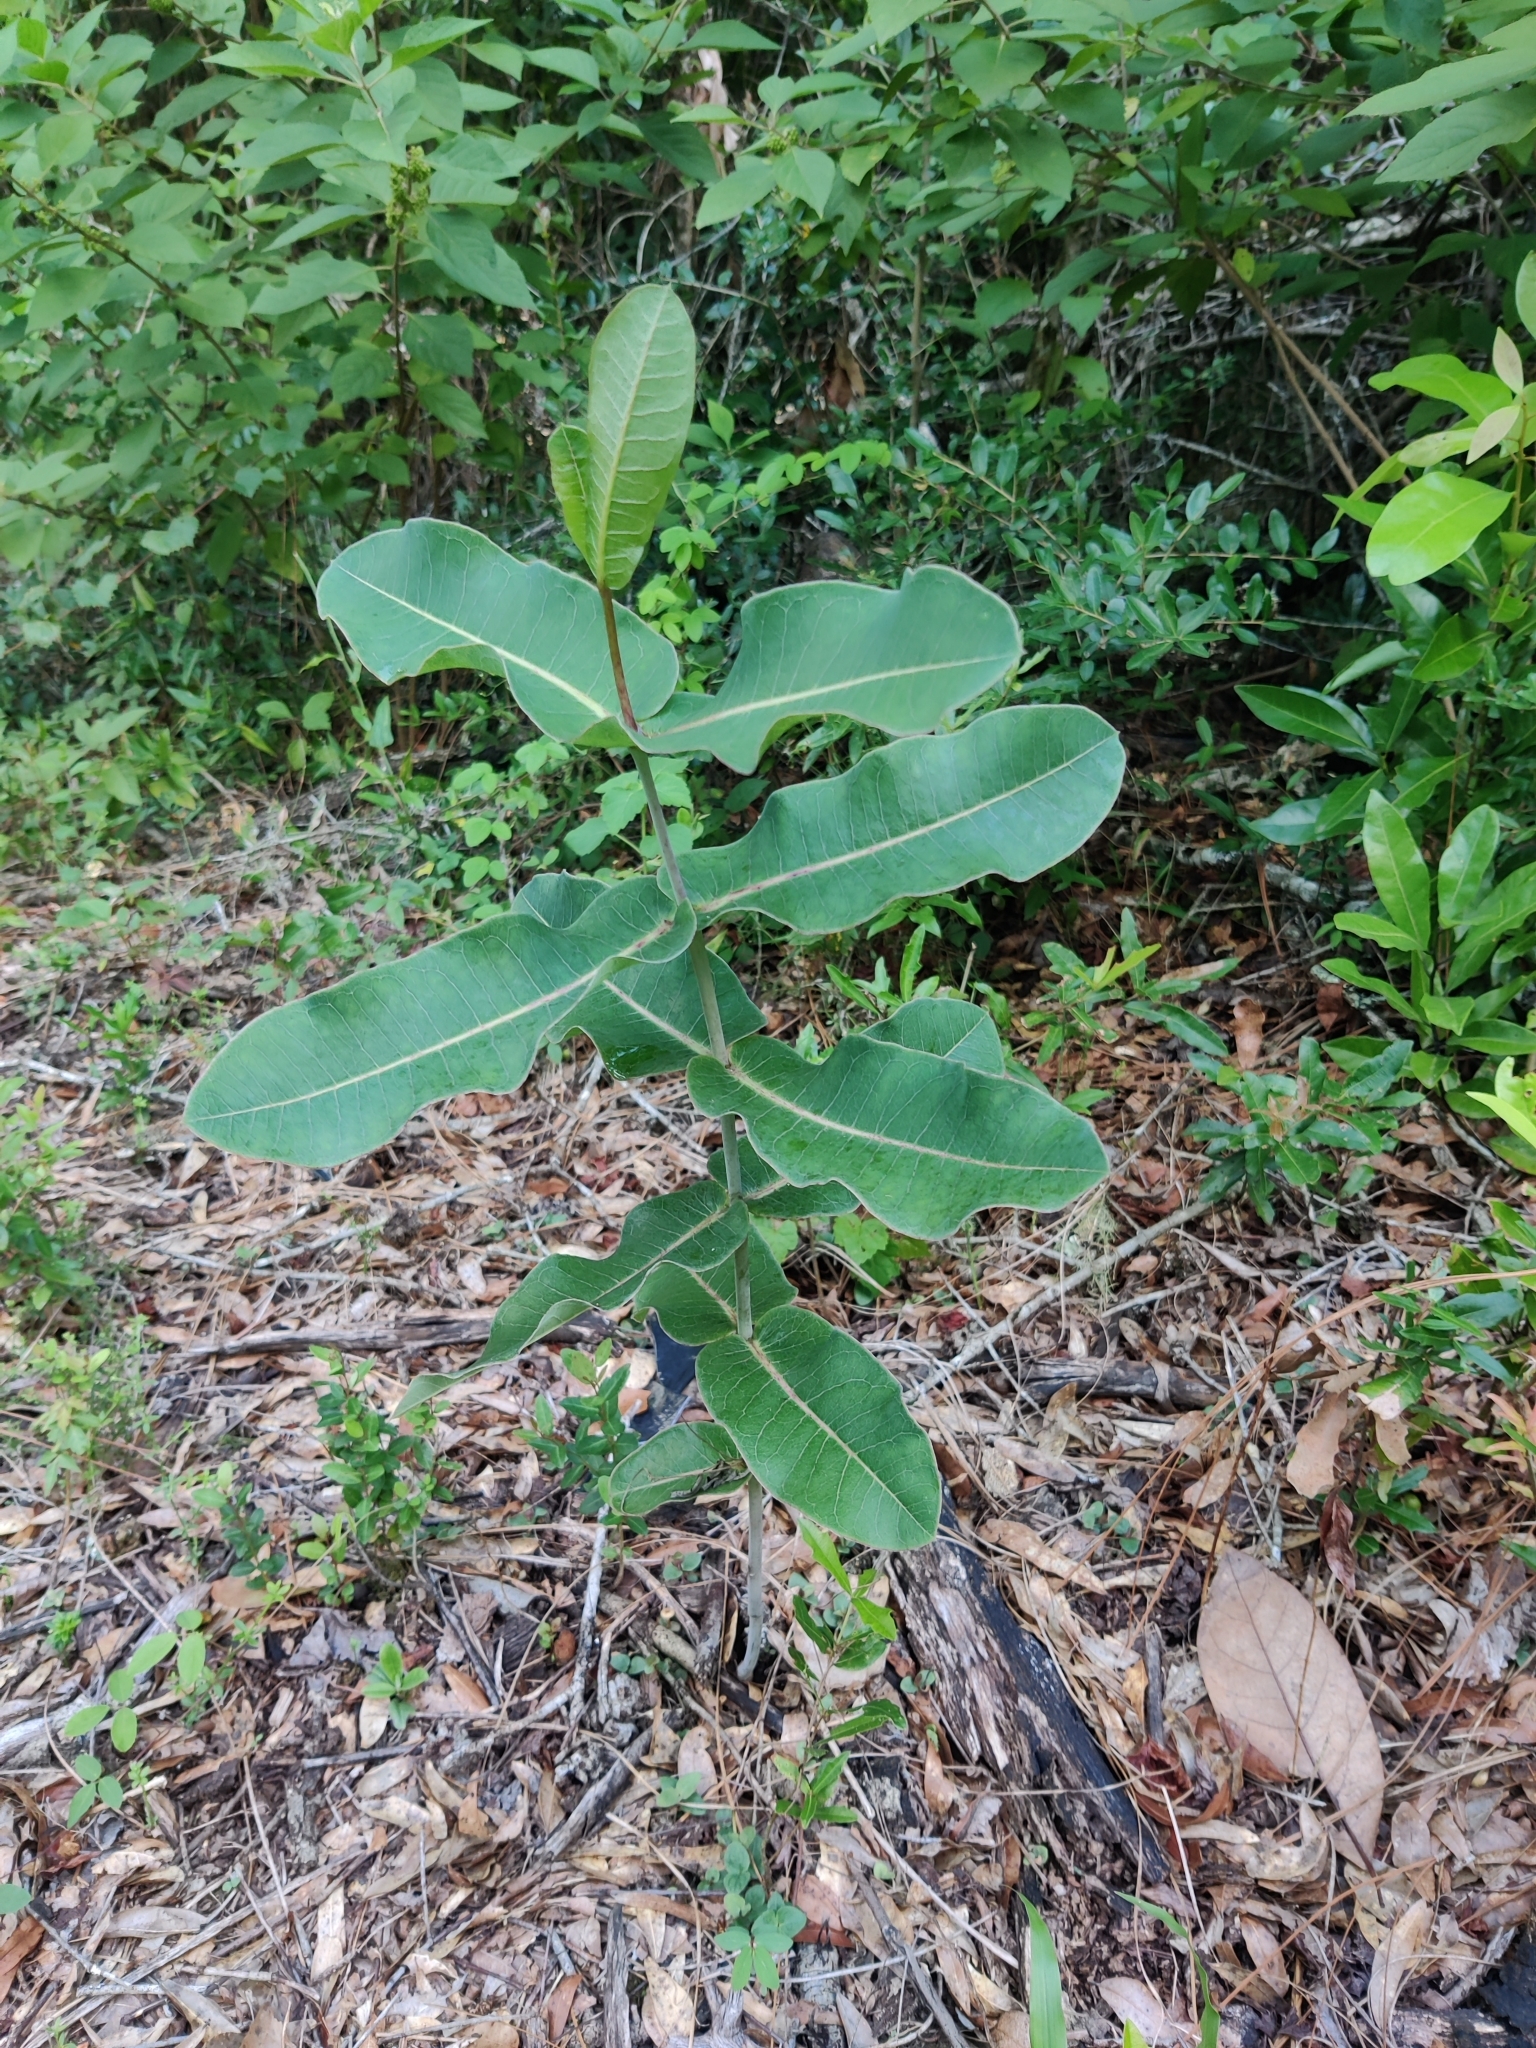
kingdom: Plantae
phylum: Tracheophyta
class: Magnoliopsida
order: Gentianales
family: Apocynaceae
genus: Asclepias
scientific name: Asclepias amplexicaulis
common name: Blunt-leaf milkweed
